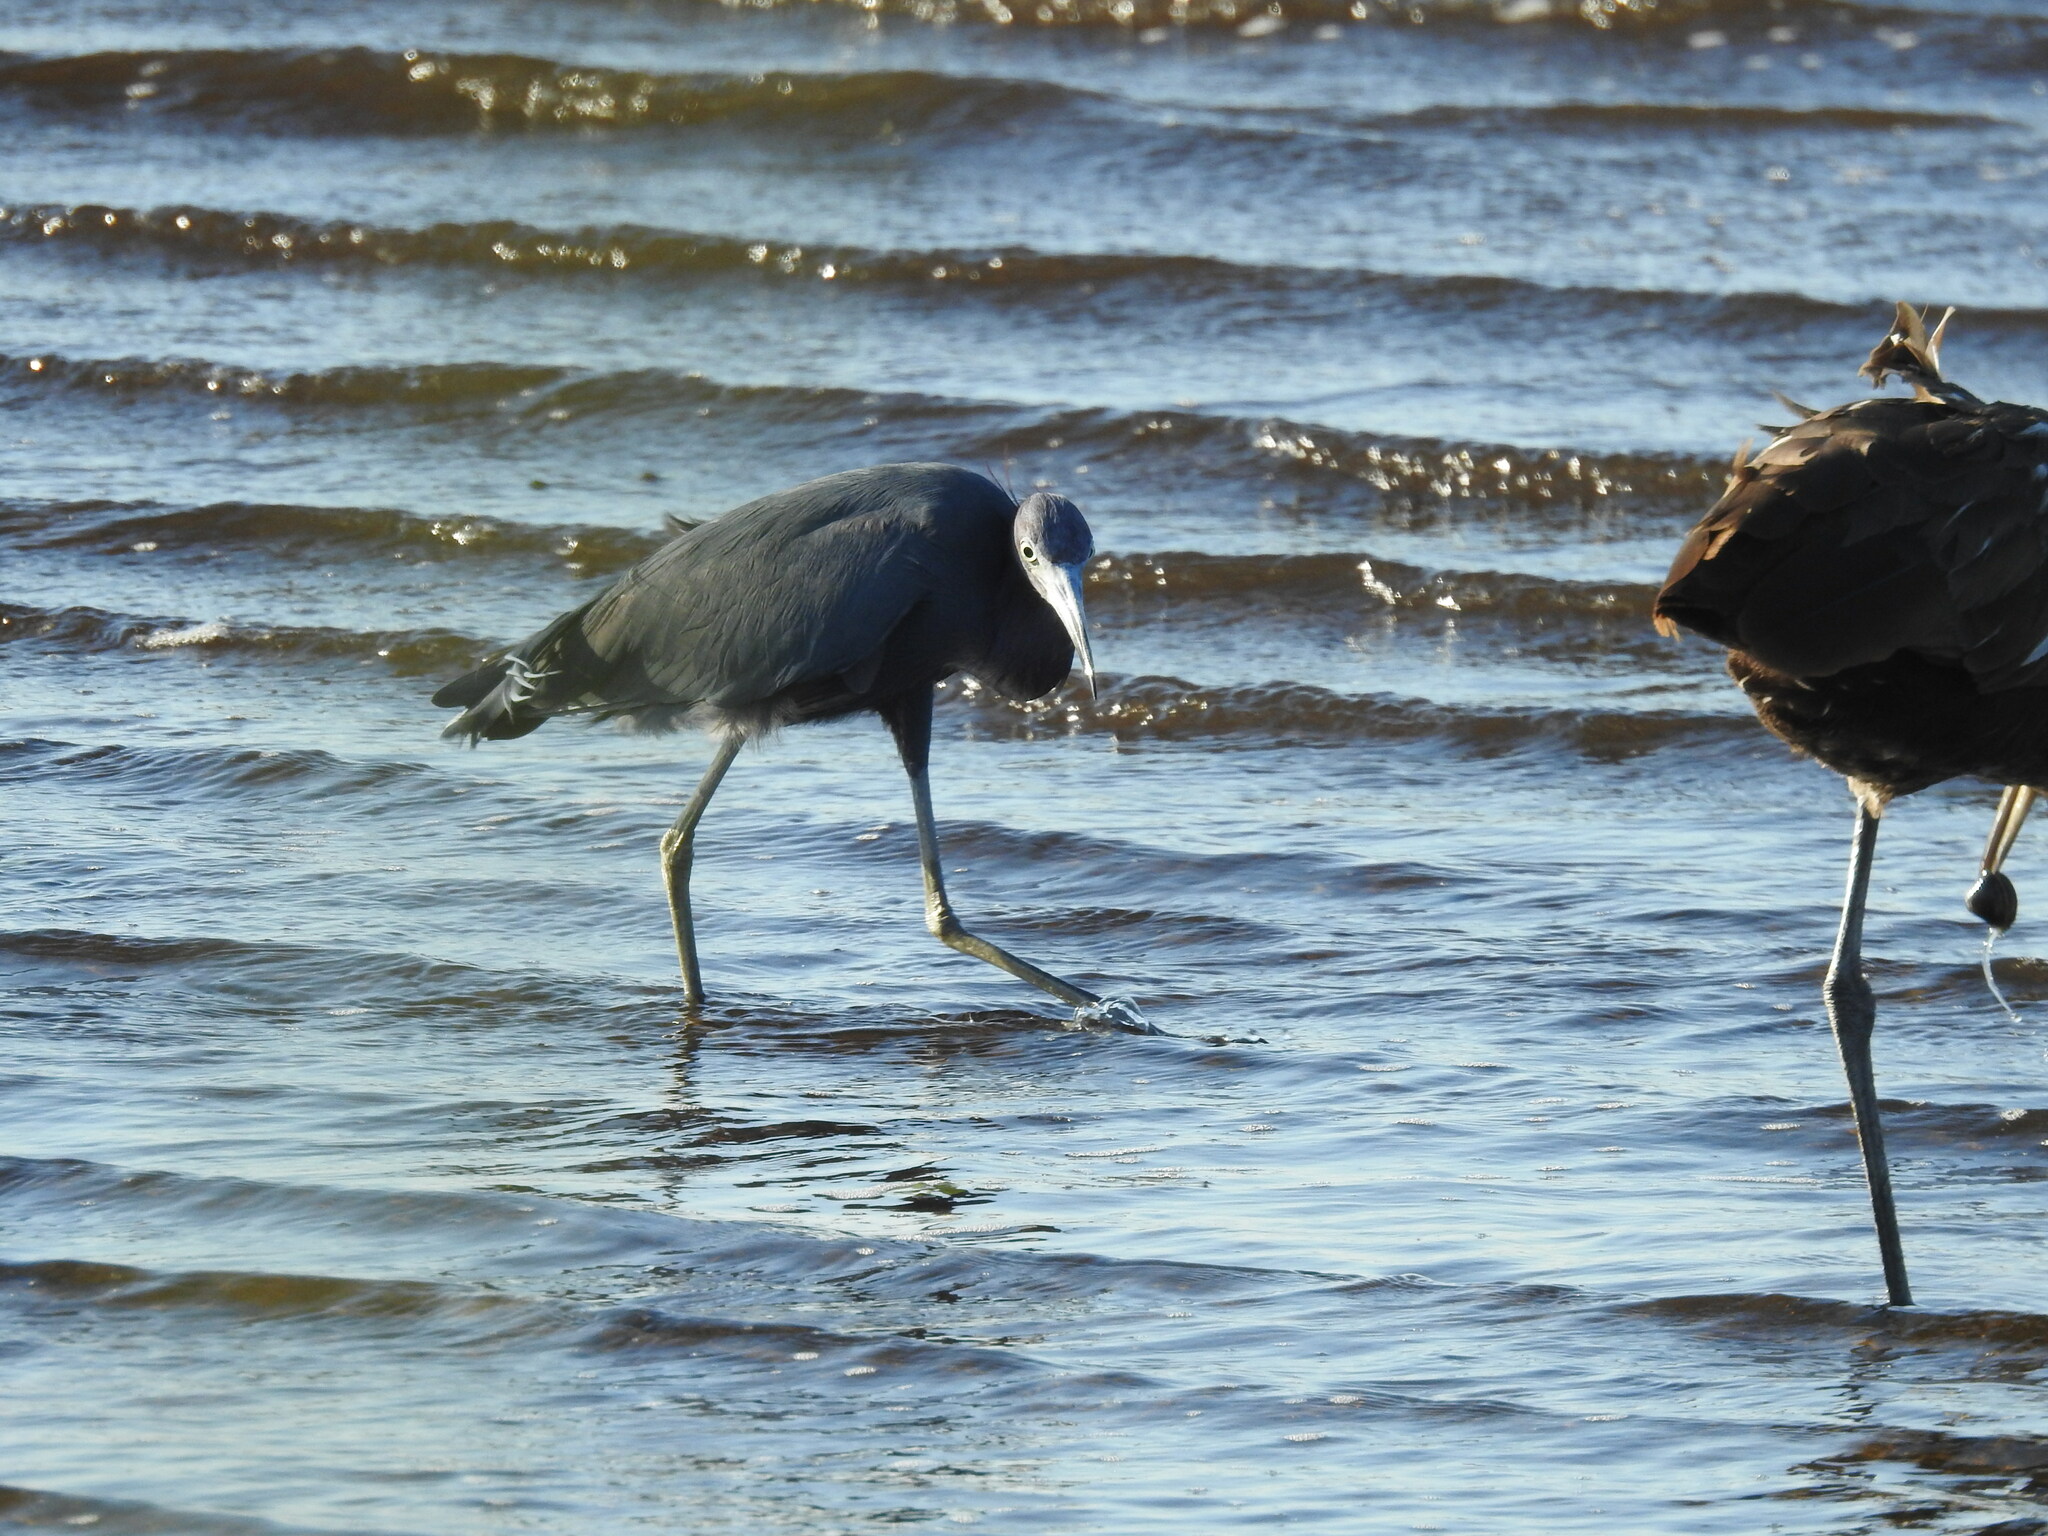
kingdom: Animalia
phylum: Chordata
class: Aves
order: Pelecaniformes
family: Ardeidae
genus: Egretta
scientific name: Egretta caerulea
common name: Little blue heron
